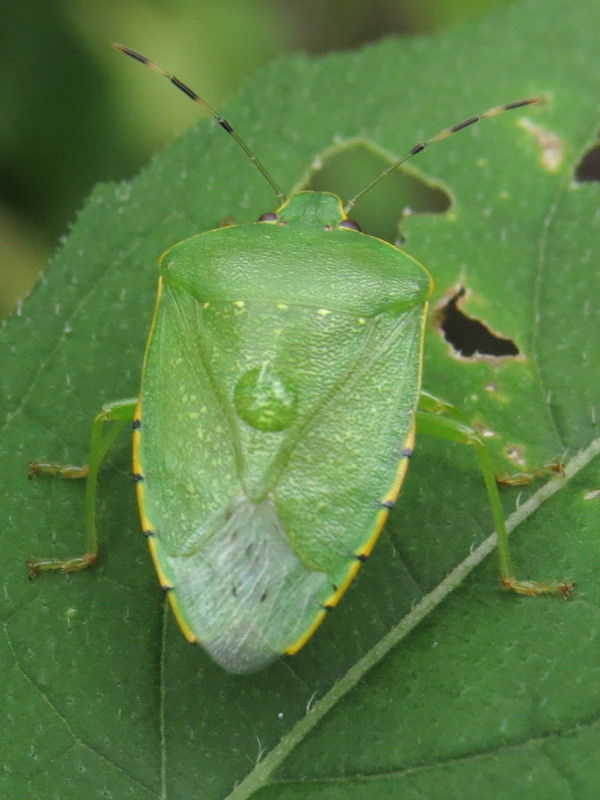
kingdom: Animalia
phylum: Arthropoda
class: Insecta
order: Hemiptera
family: Pentatomidae
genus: Chinavia
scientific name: Chinavia hilaris
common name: Green stink bug
